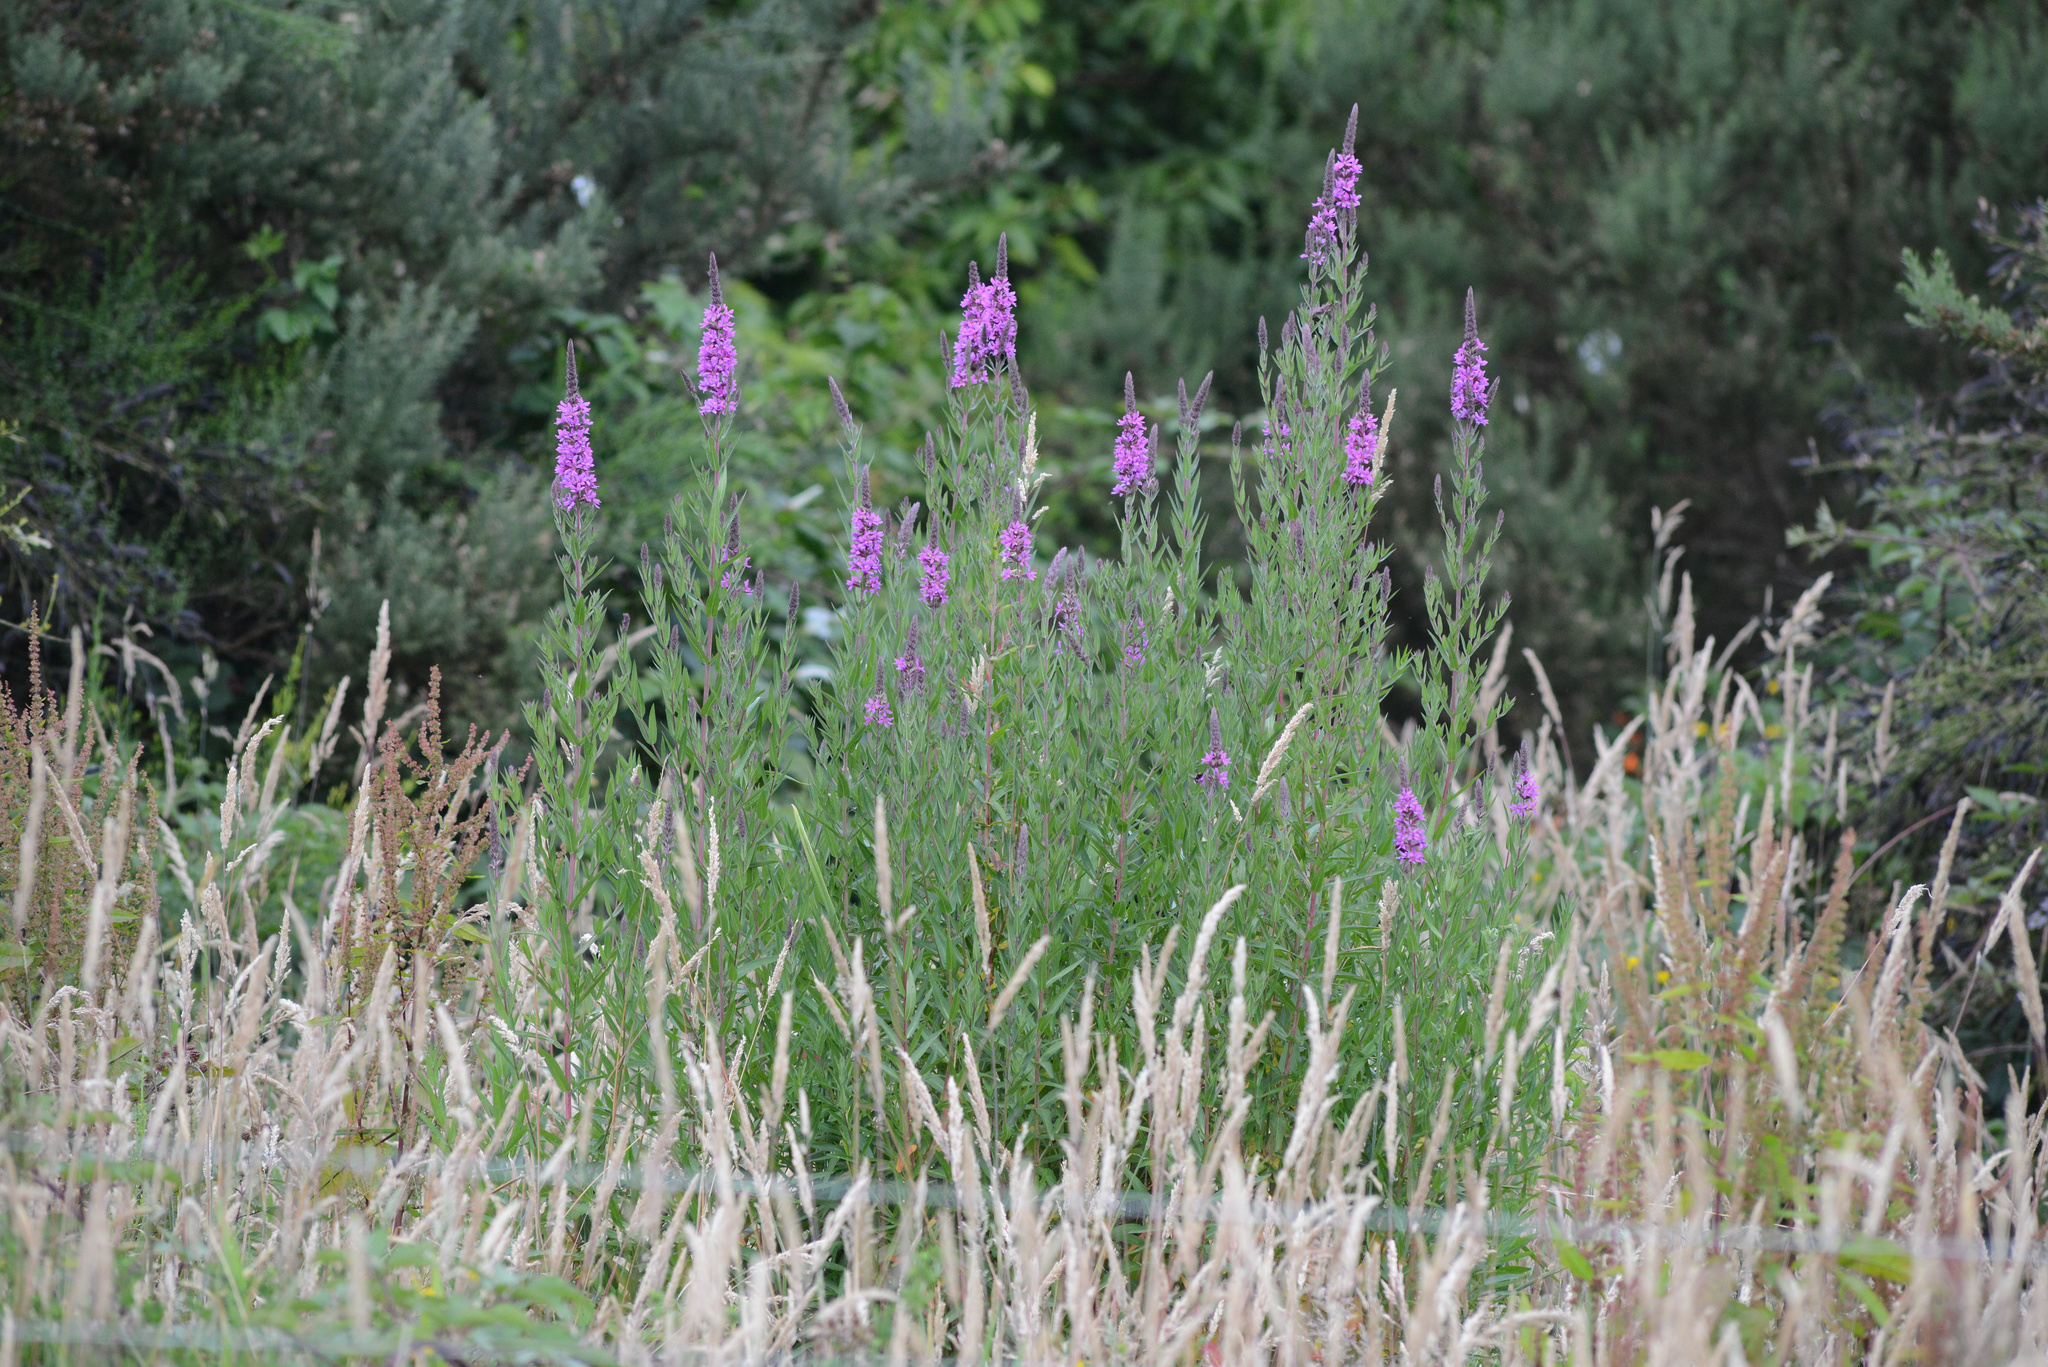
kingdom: Plantae
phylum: Tracheophyta
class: Magnoliopsida
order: Myrtales
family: Lythraceae
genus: Lythrum
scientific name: Lythrum salicaria
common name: Purple loosestrife
